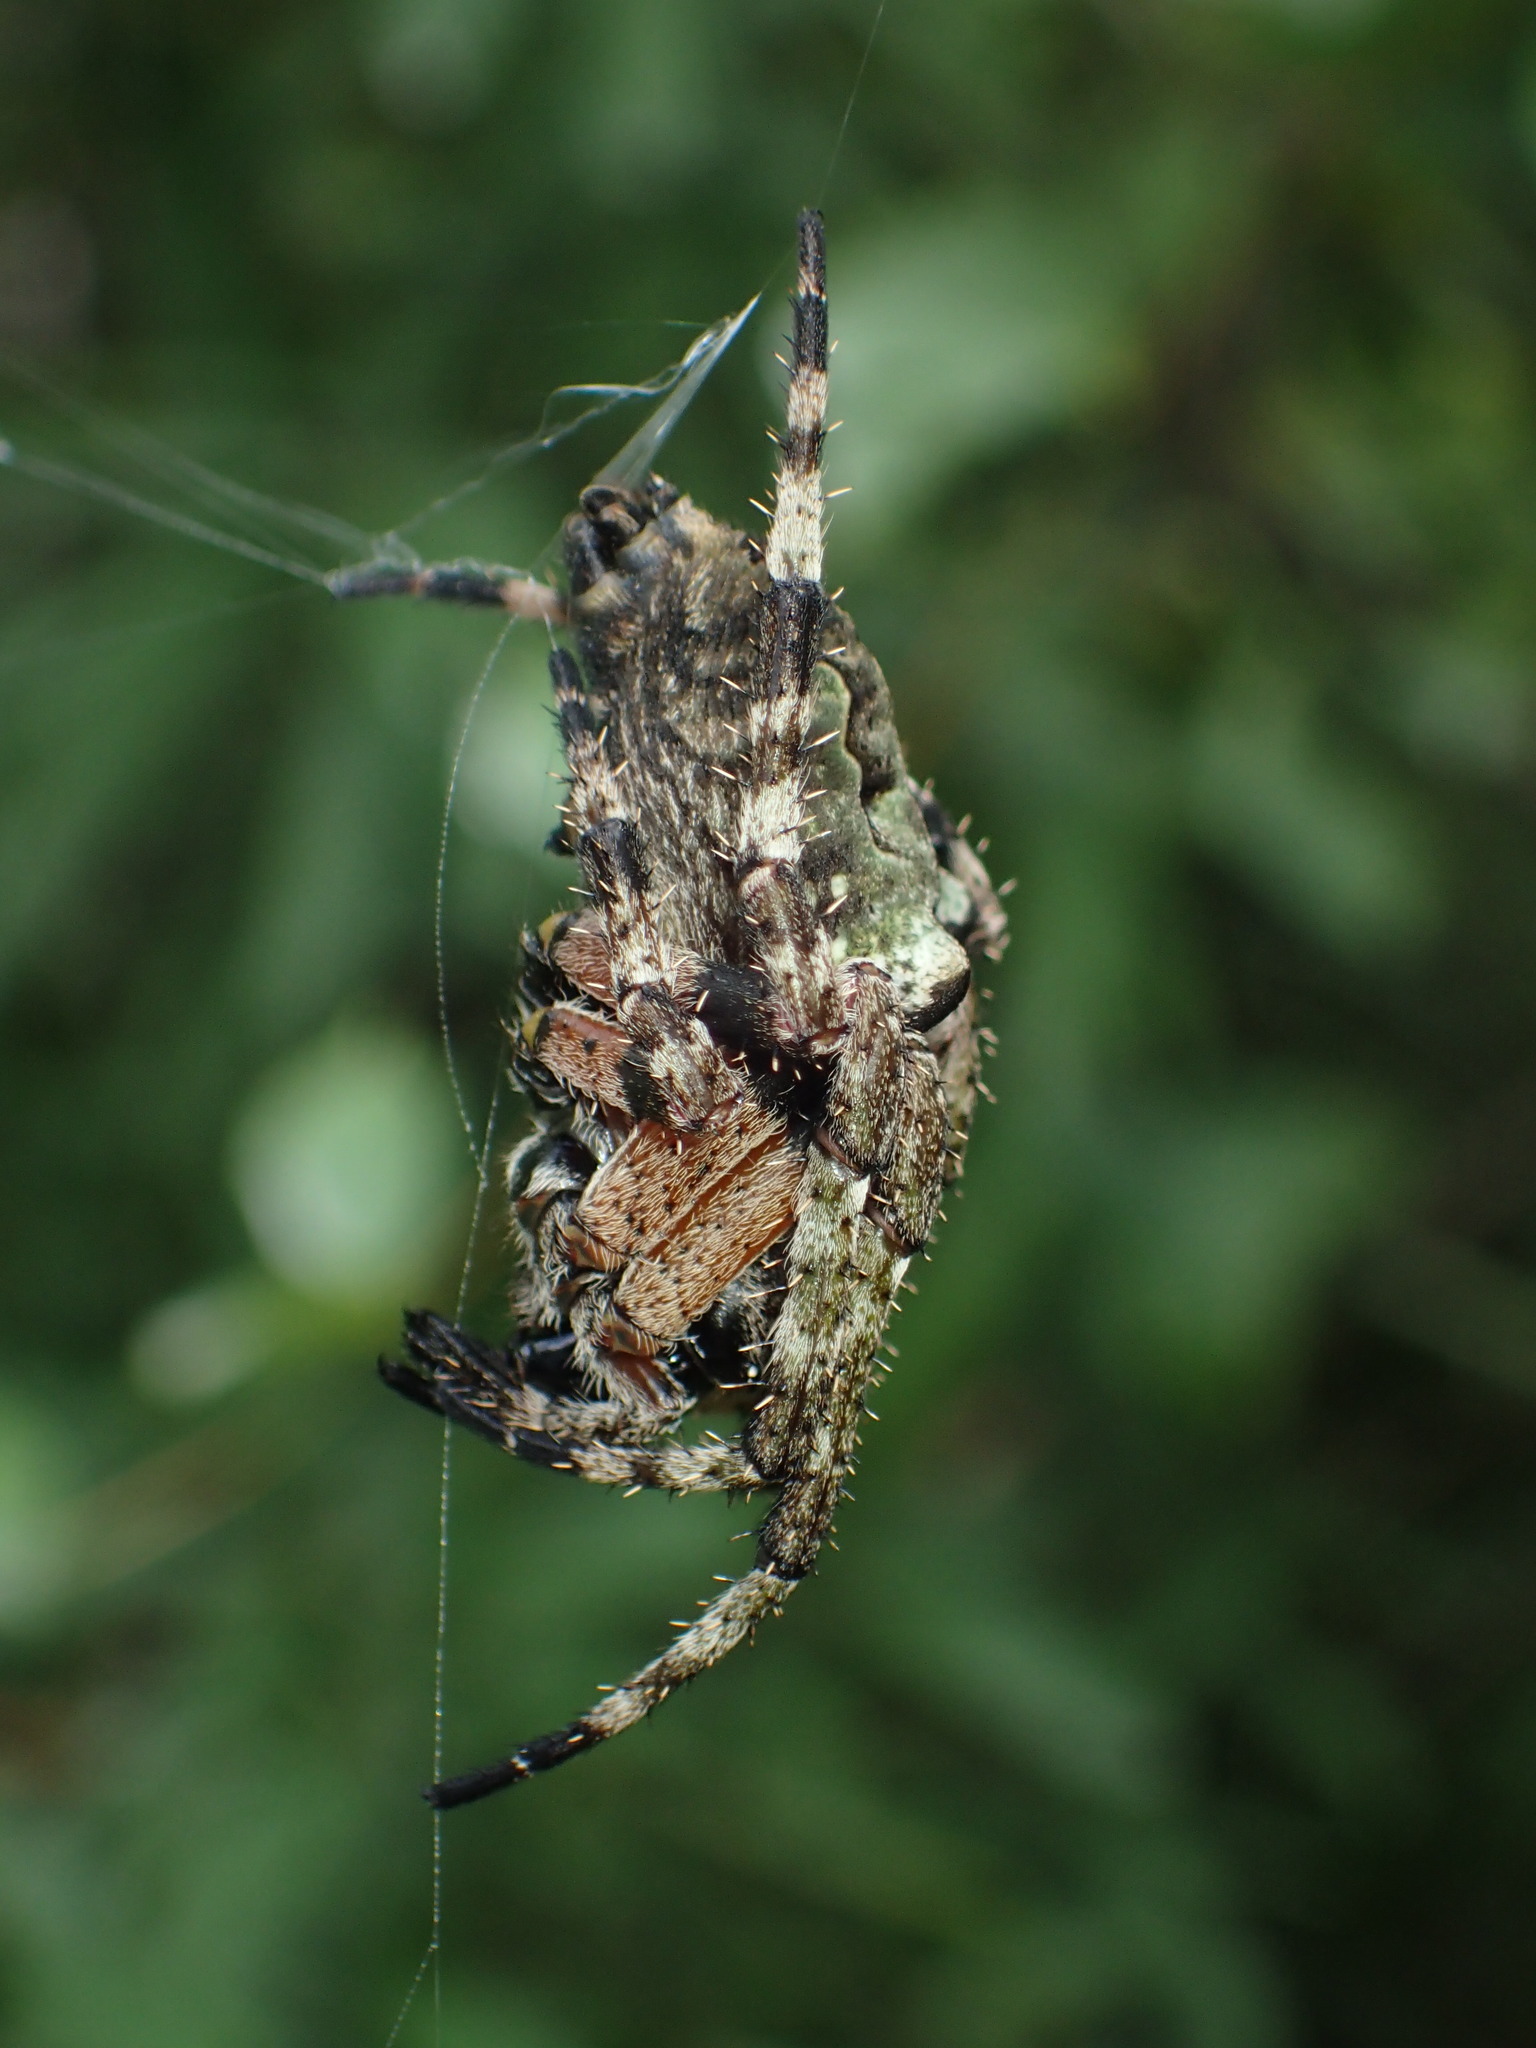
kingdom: Animalia
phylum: Arthropoda
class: Arachnida
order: Araneae
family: Araneidae
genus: Araneus
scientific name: Araneus bicentenarius
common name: Giant lichen orbweaver
